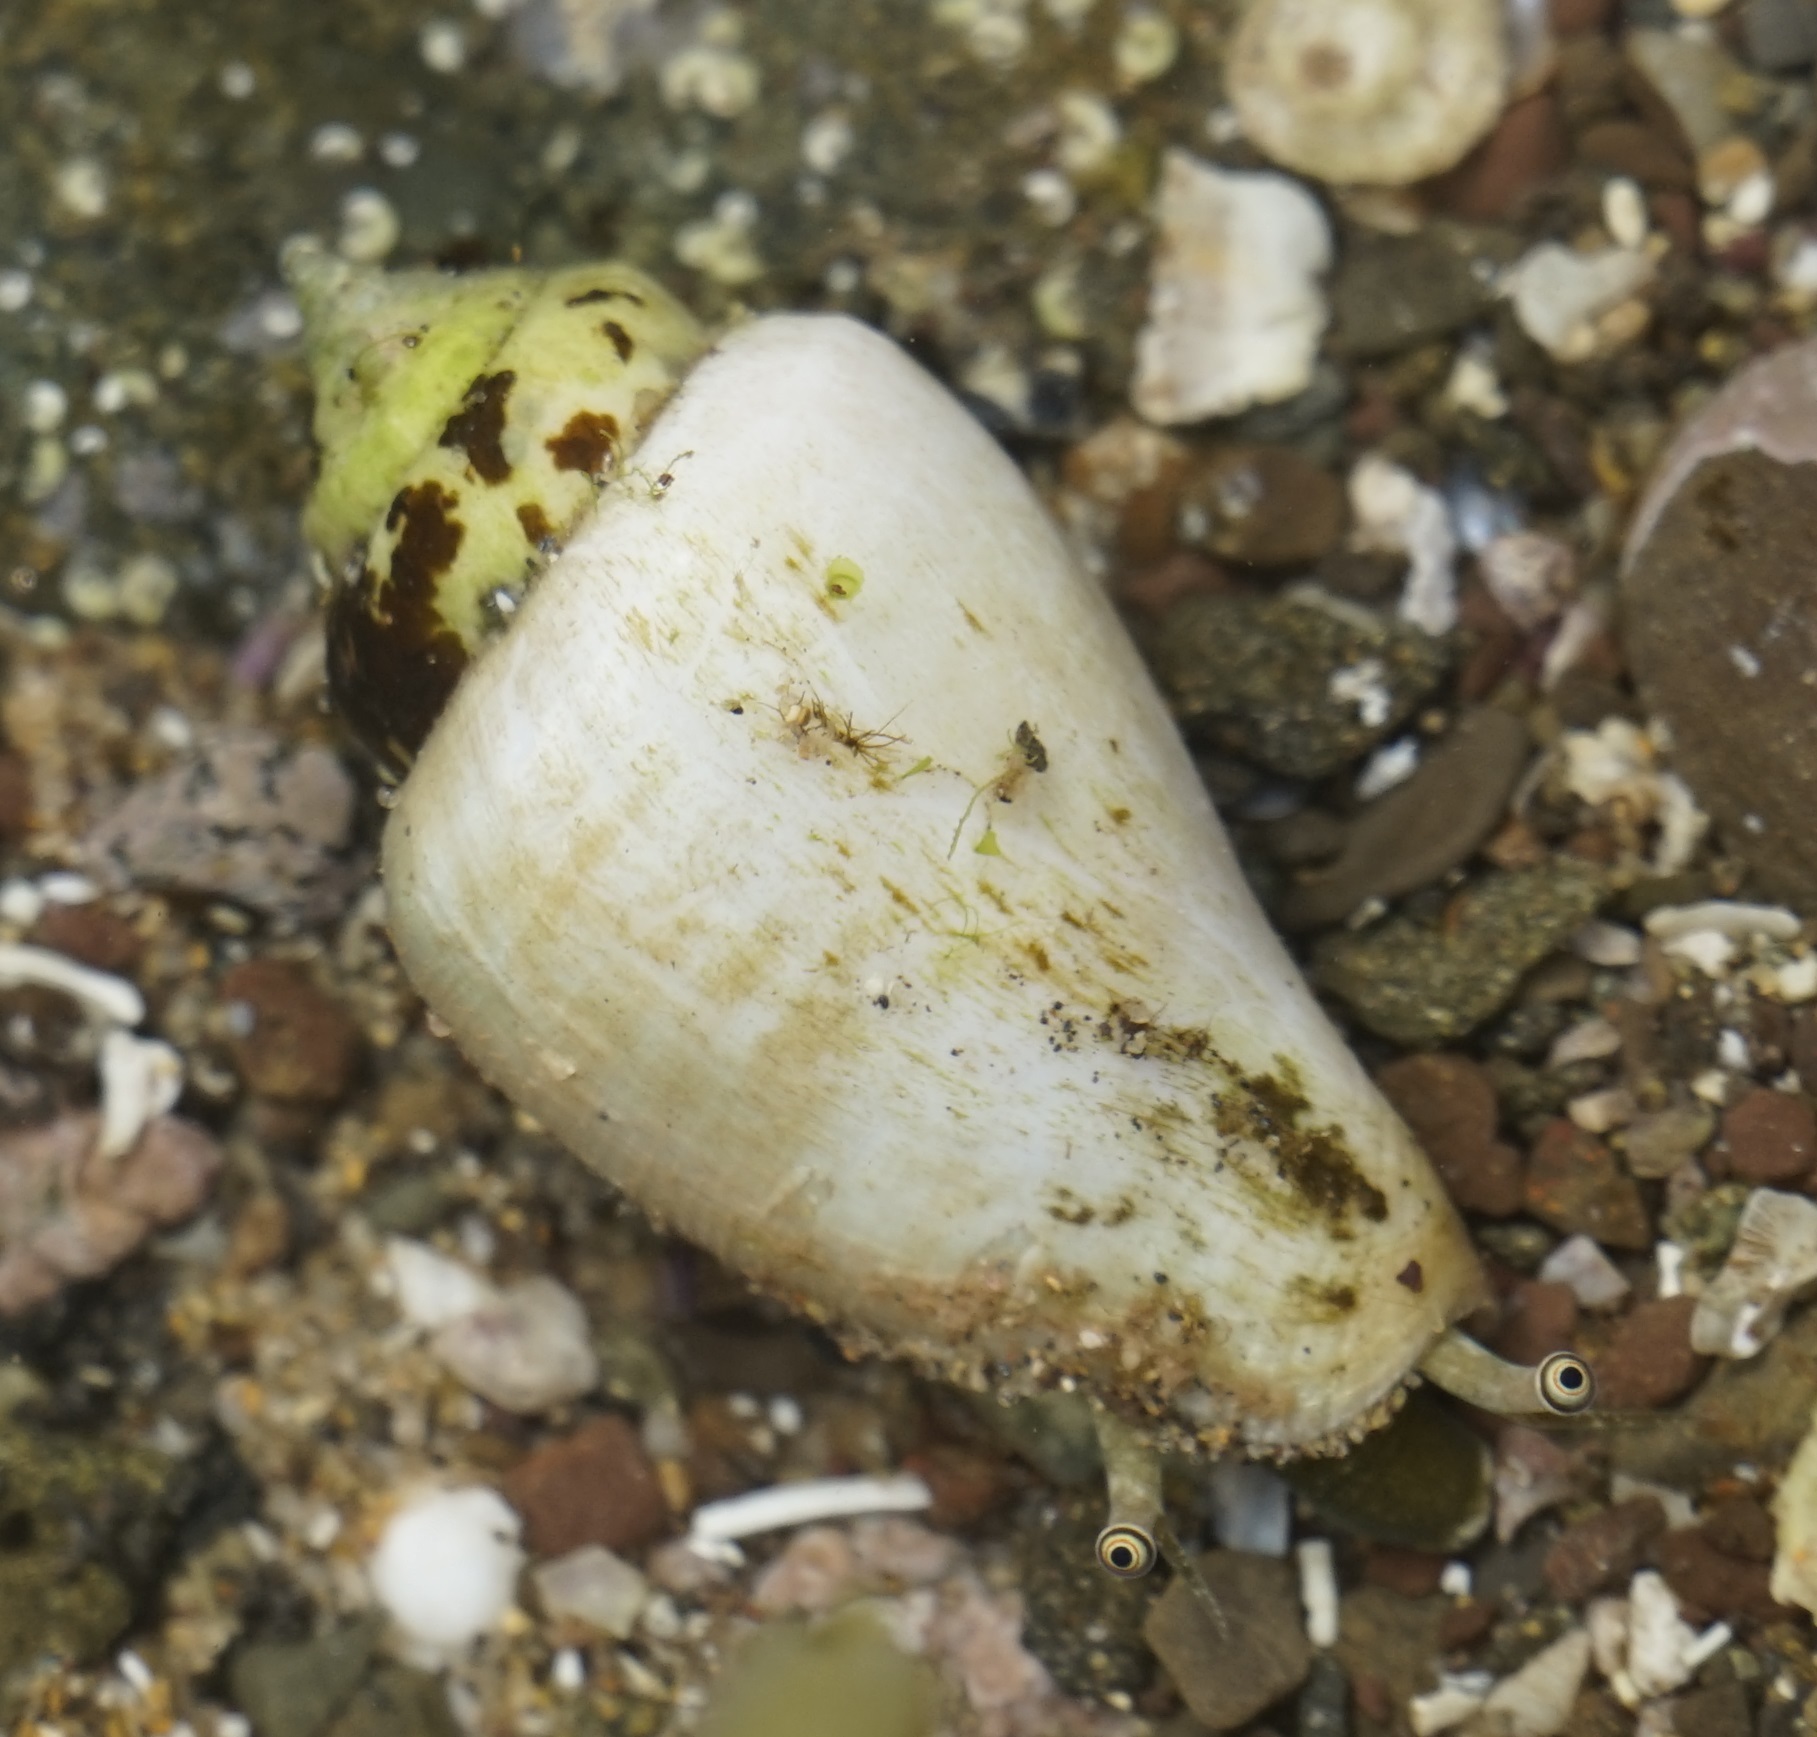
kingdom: Animalia
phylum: Mollusca
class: Gastropoda
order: Littorinimorpha
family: Strombidae
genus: Conomurex
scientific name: Conomurex luhuanus
